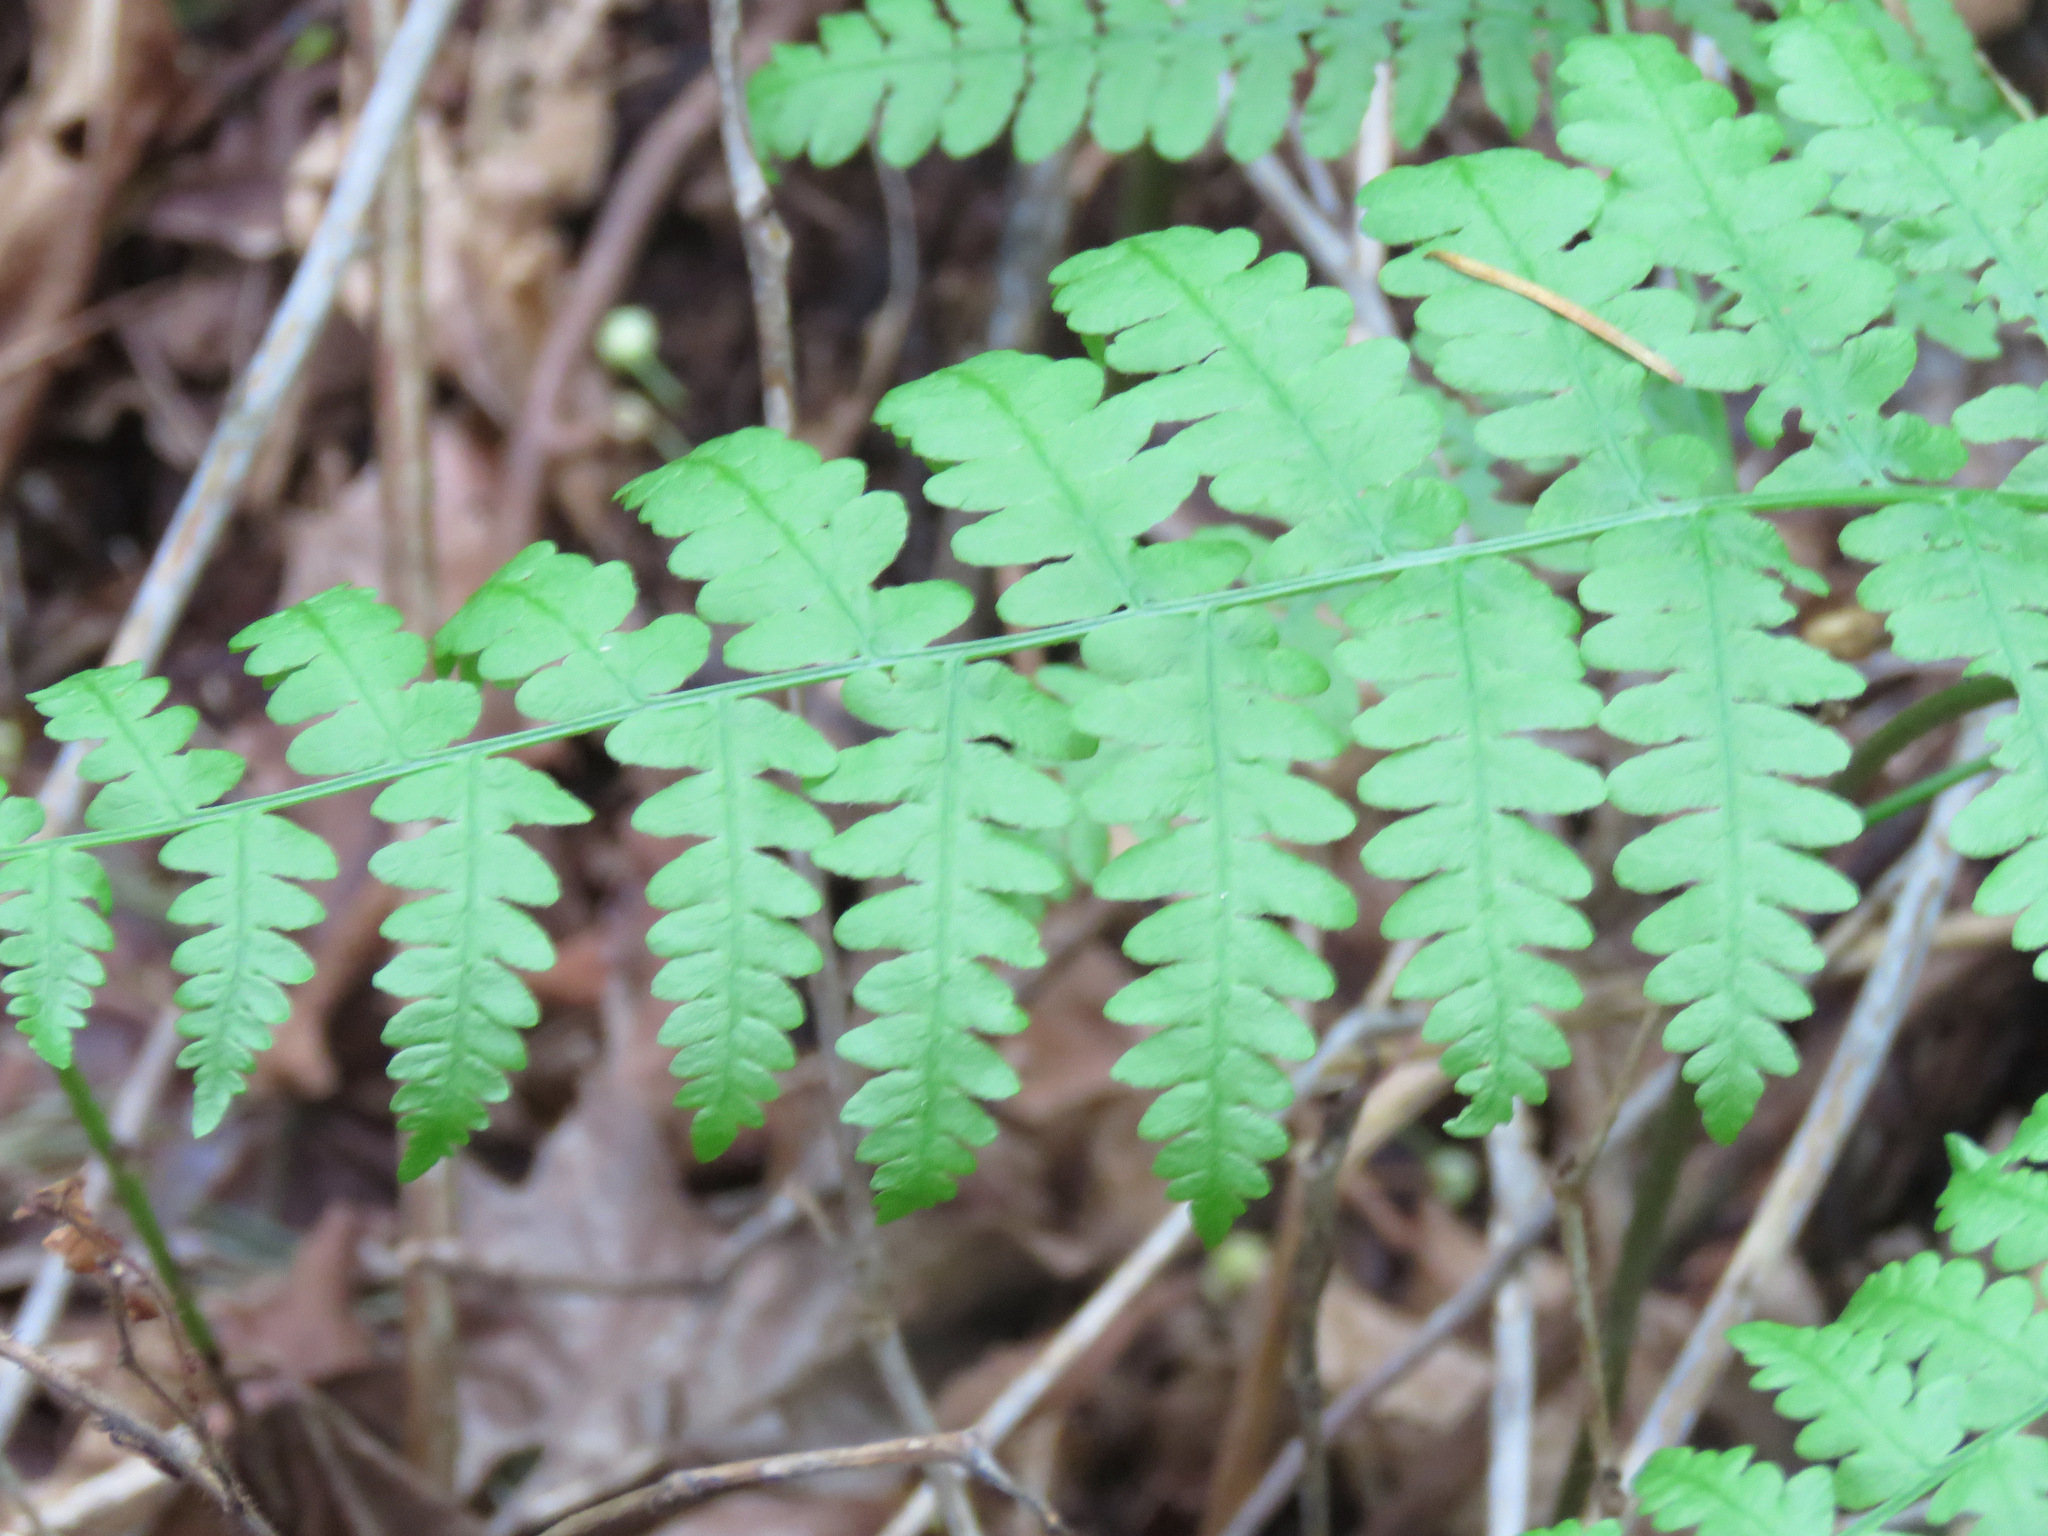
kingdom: Plantae
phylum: Tracheophyta
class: Polypodiopsida
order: Polypodiales
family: Dennstaedtiaceae
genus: Pteridium
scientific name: Pteridium aquilinum
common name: Bracken
